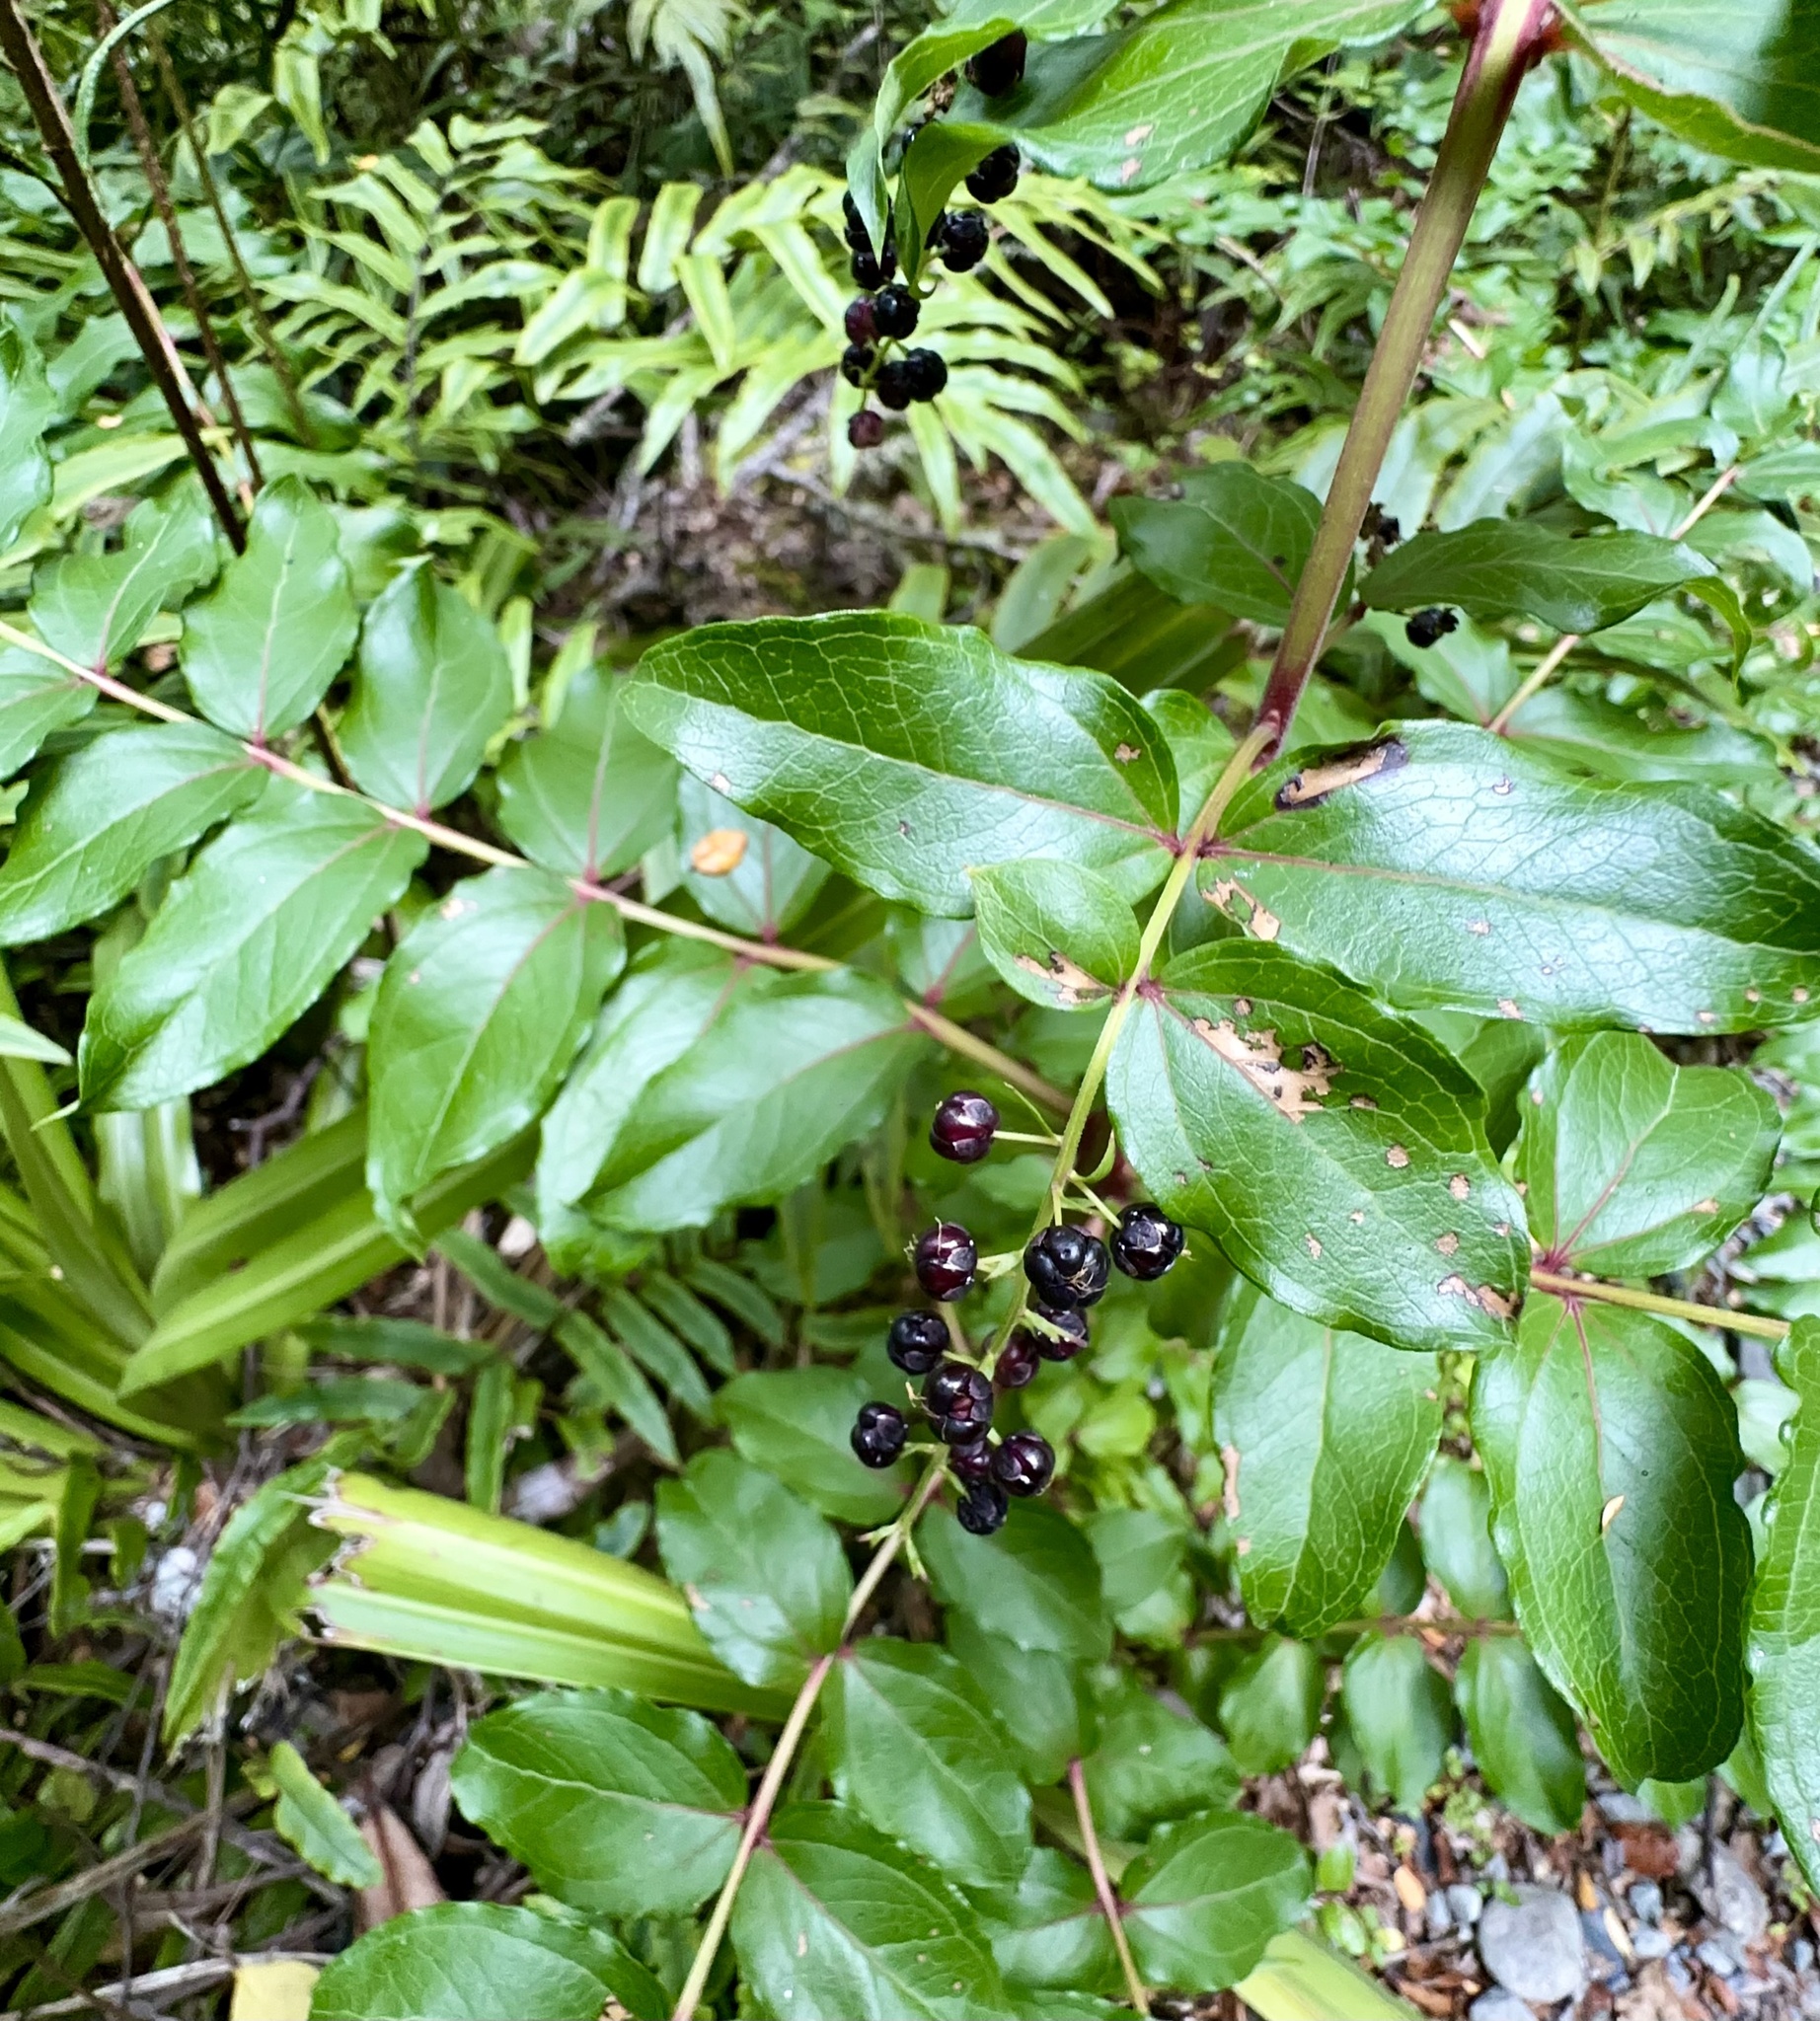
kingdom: Plantae
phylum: Tracheophyta
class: Magnoliopsida
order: Cucurbitales
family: Coriariaceae
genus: Coriaria
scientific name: Coriaria sarmentosa
